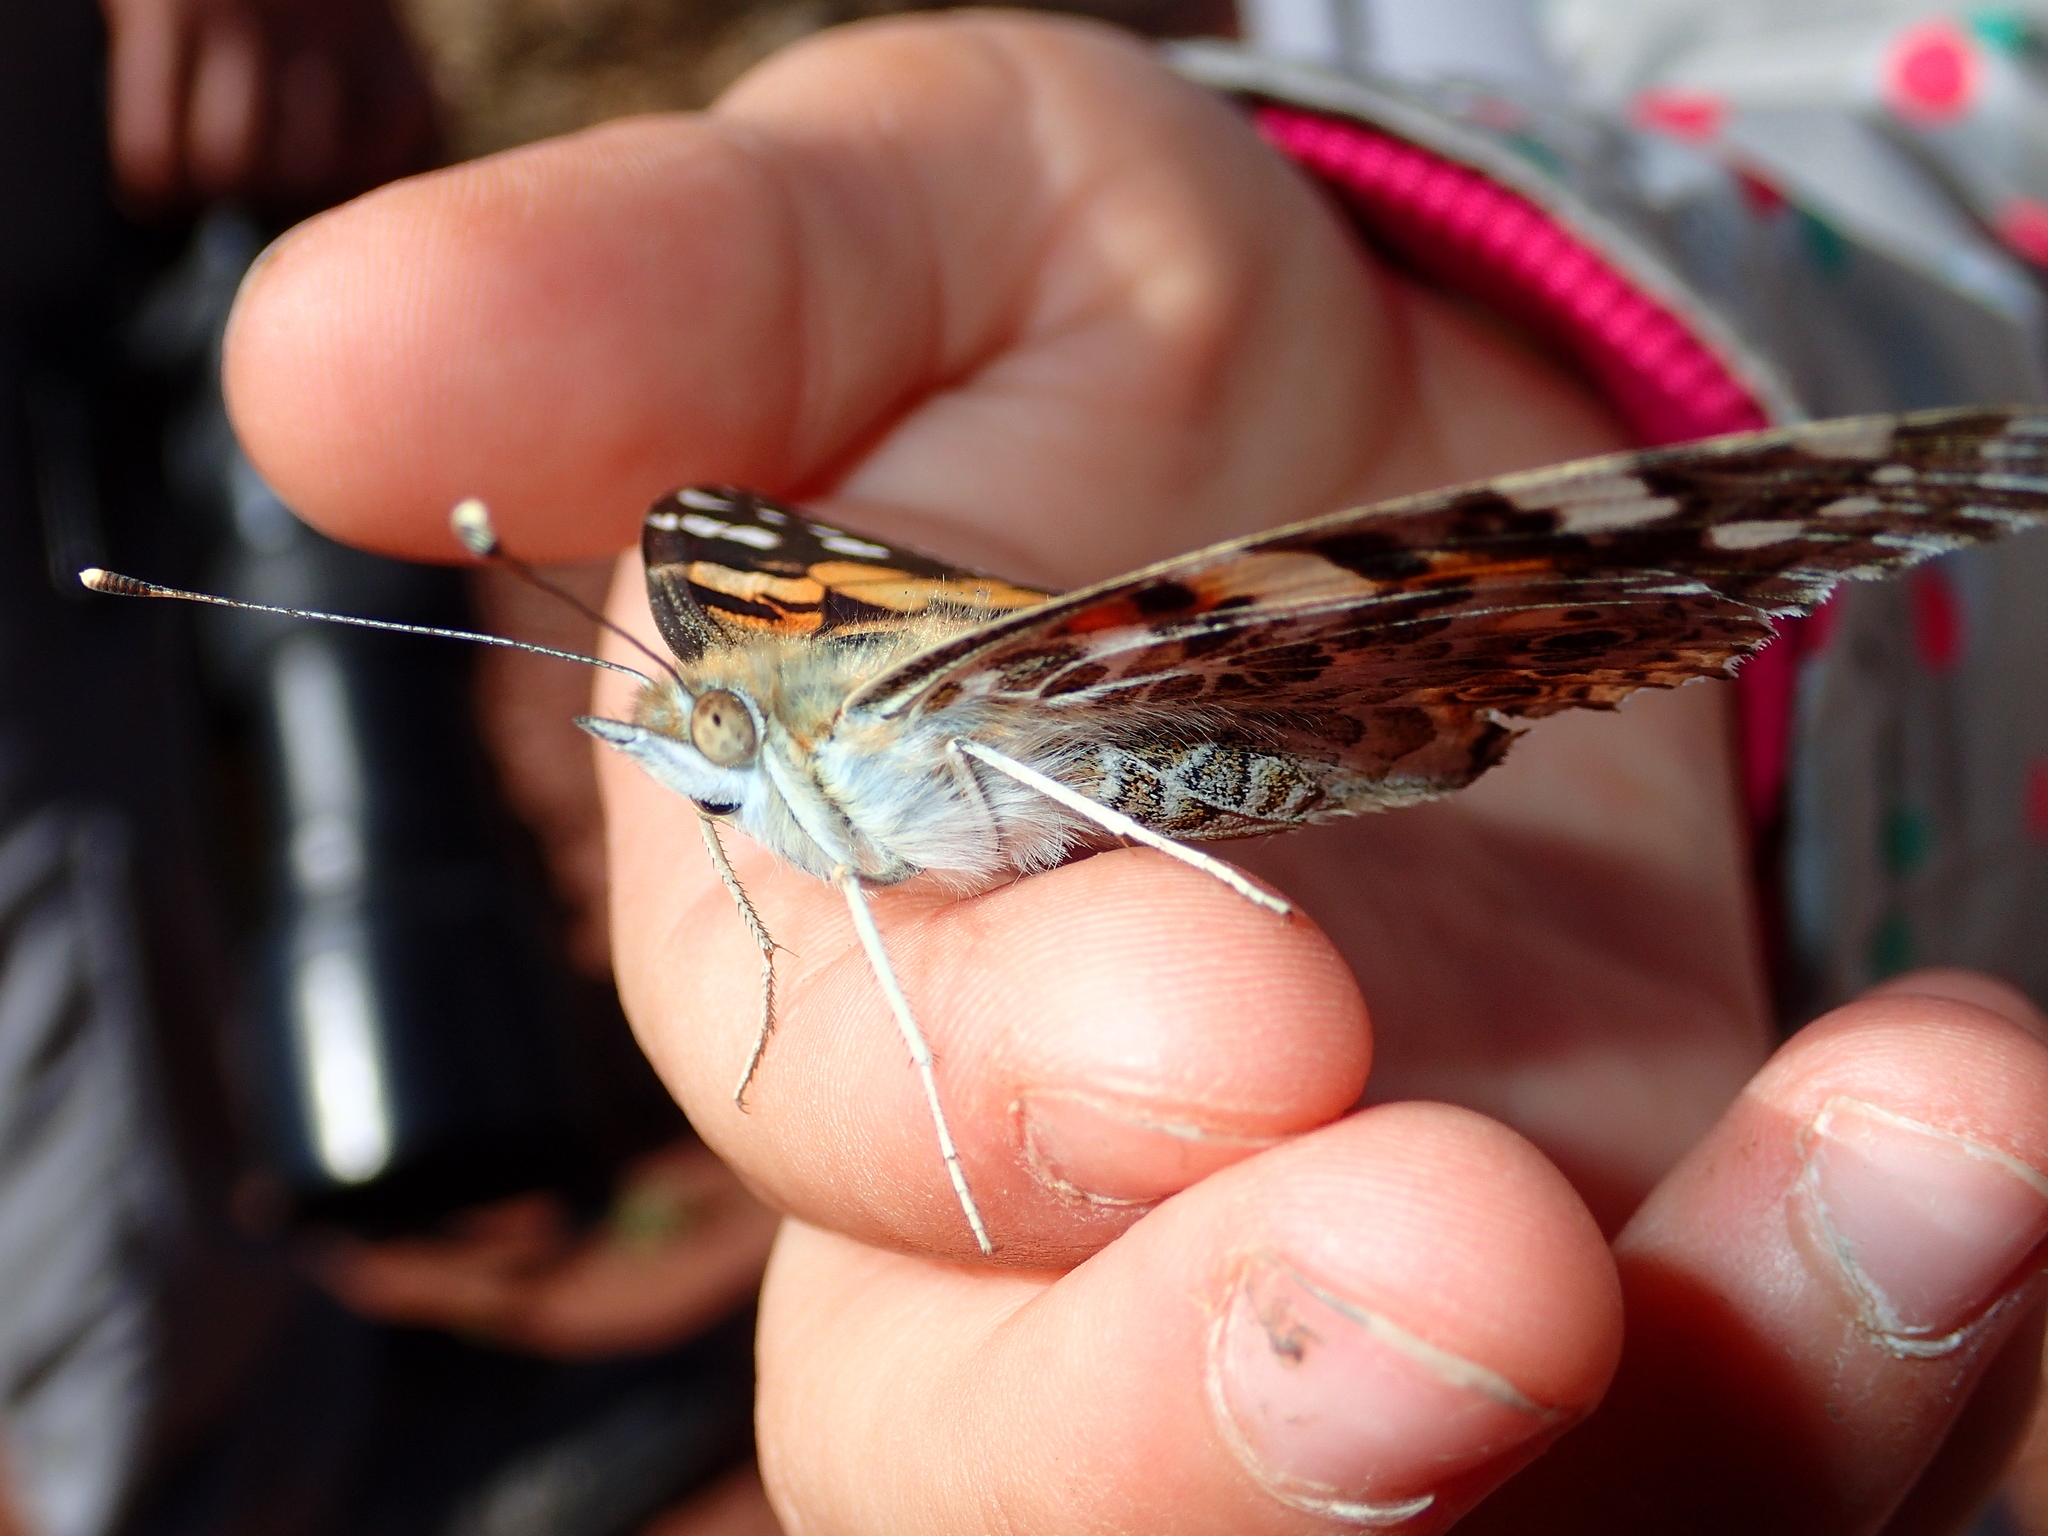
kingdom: Animalia
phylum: Arthropoda
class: Insecta
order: Lepidoptera
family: Nymphalidae
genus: Vanessa
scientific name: Vanessa cardui
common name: Painted lady
